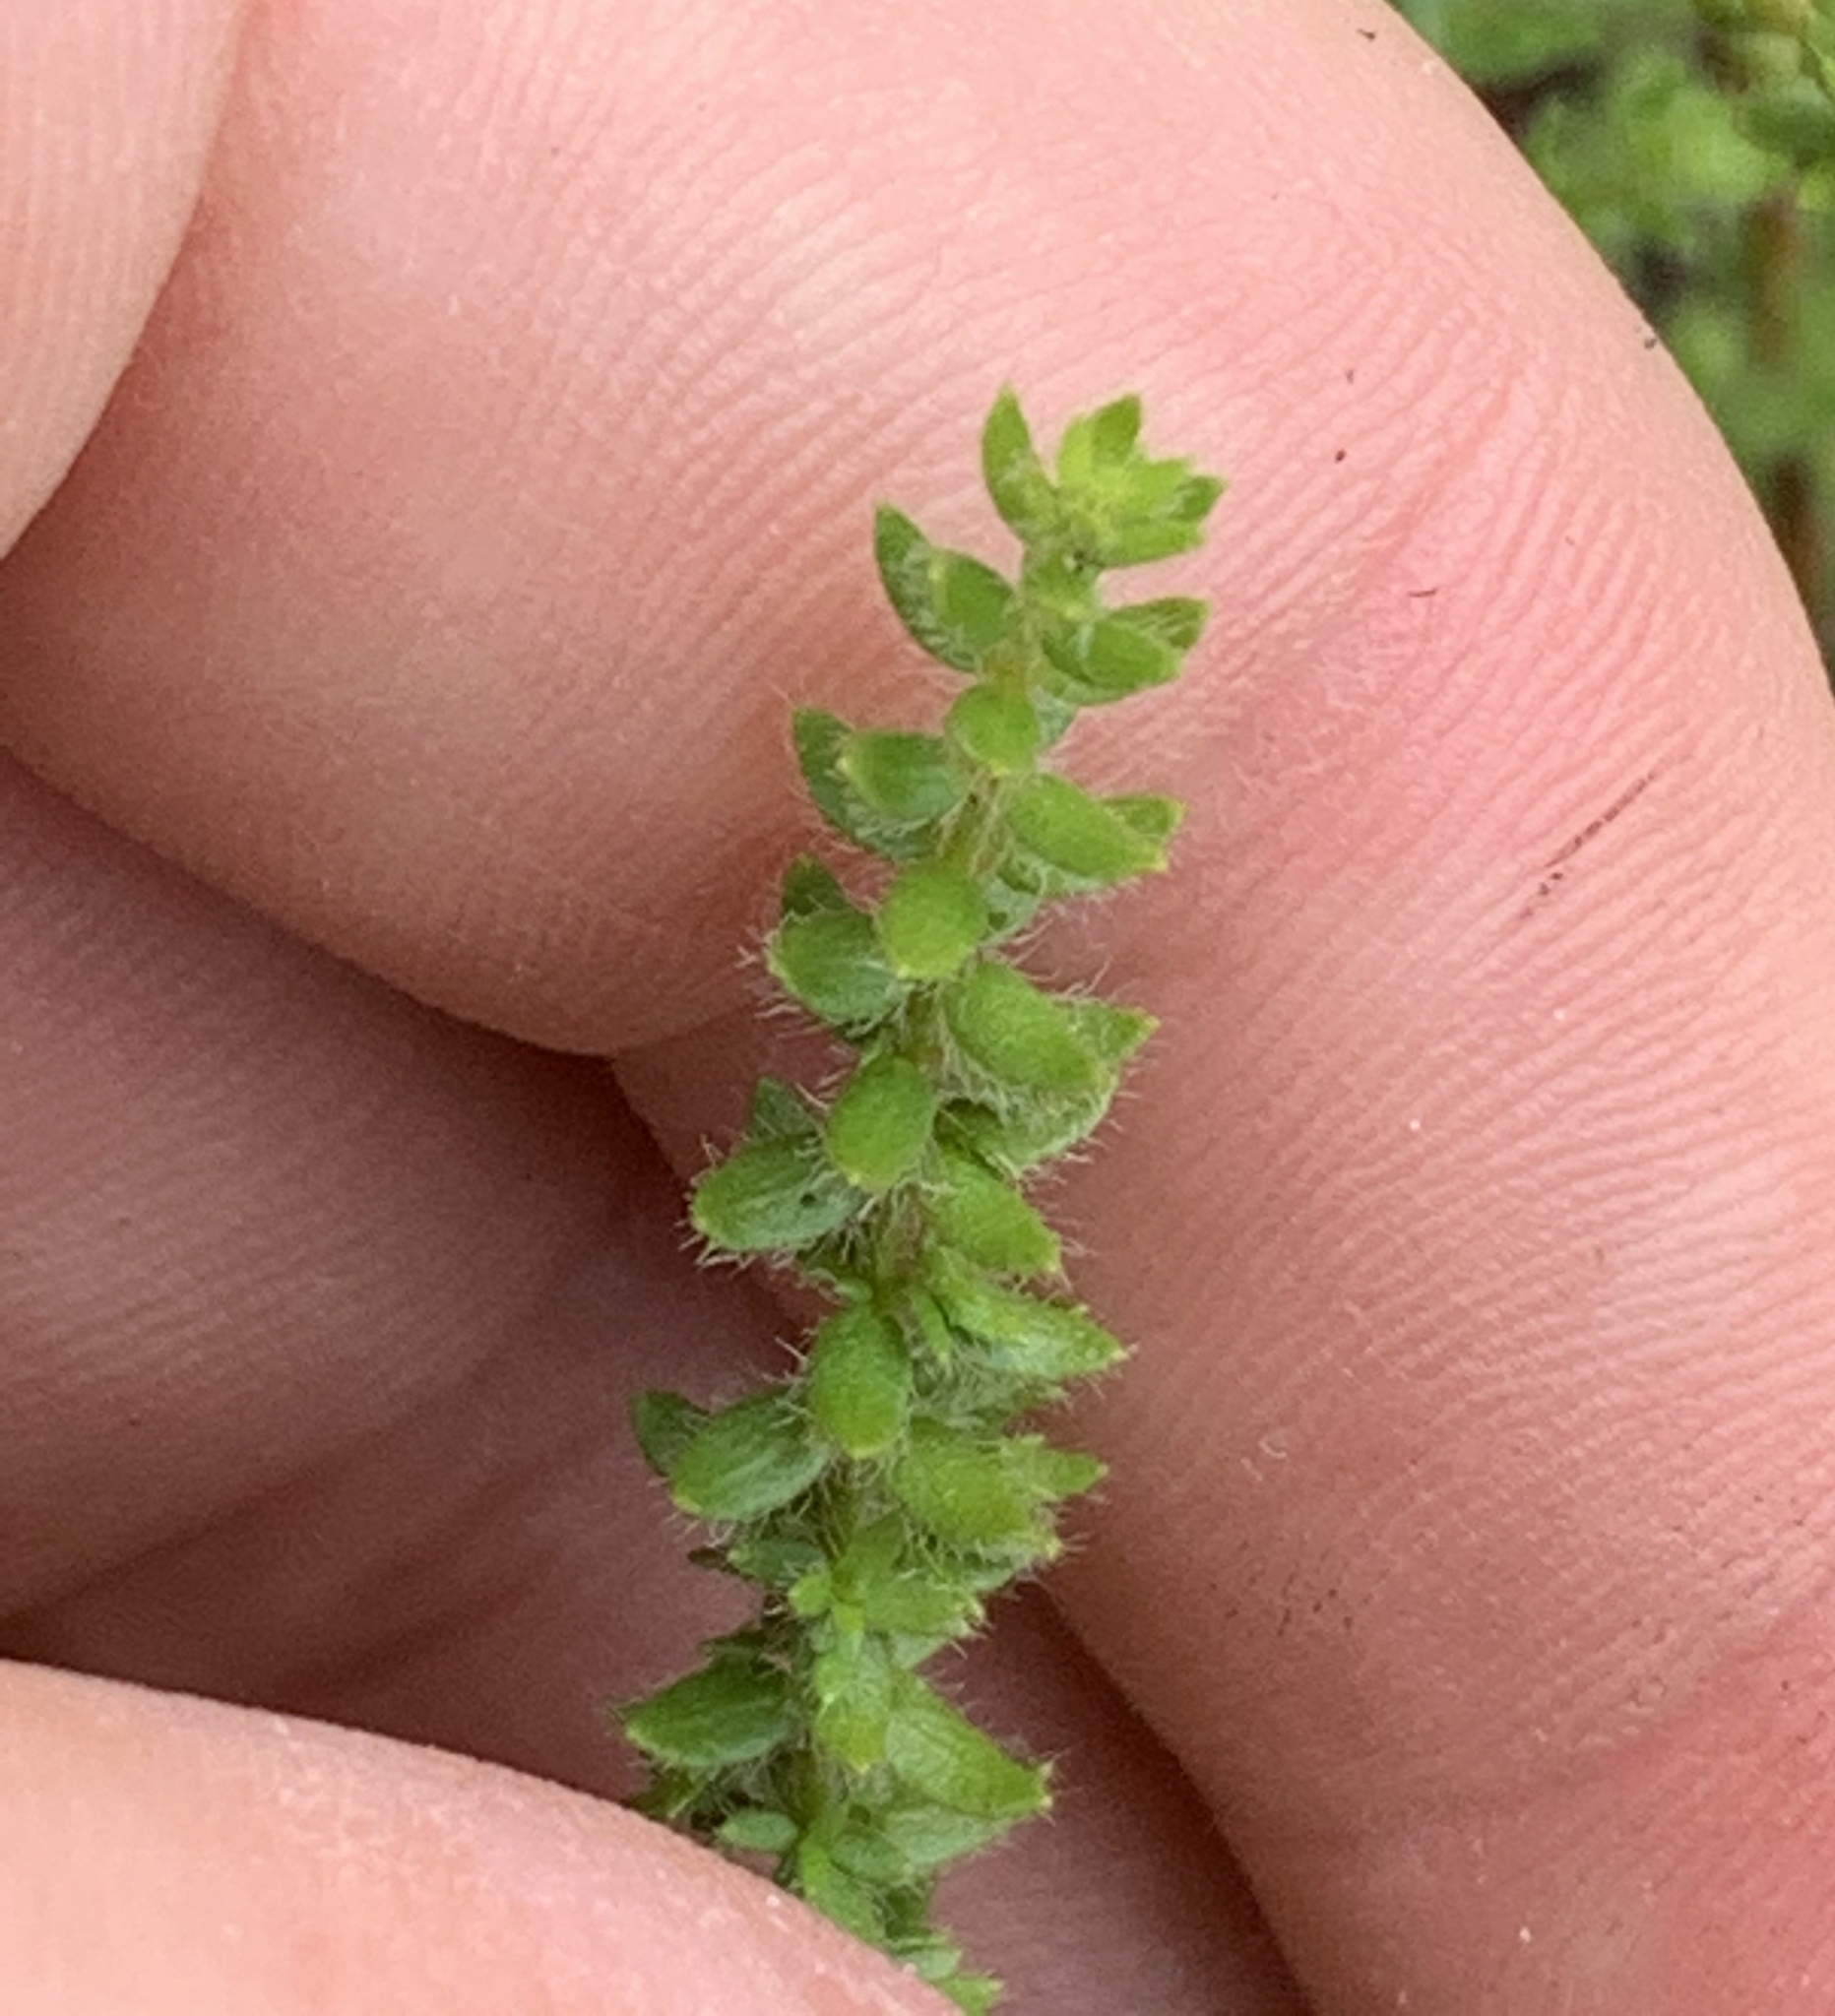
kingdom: Plantae
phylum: Tracheophyta
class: Magnoliopsida
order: Malvales
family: Cistaceae
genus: Lechea
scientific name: Lechea divaricata
